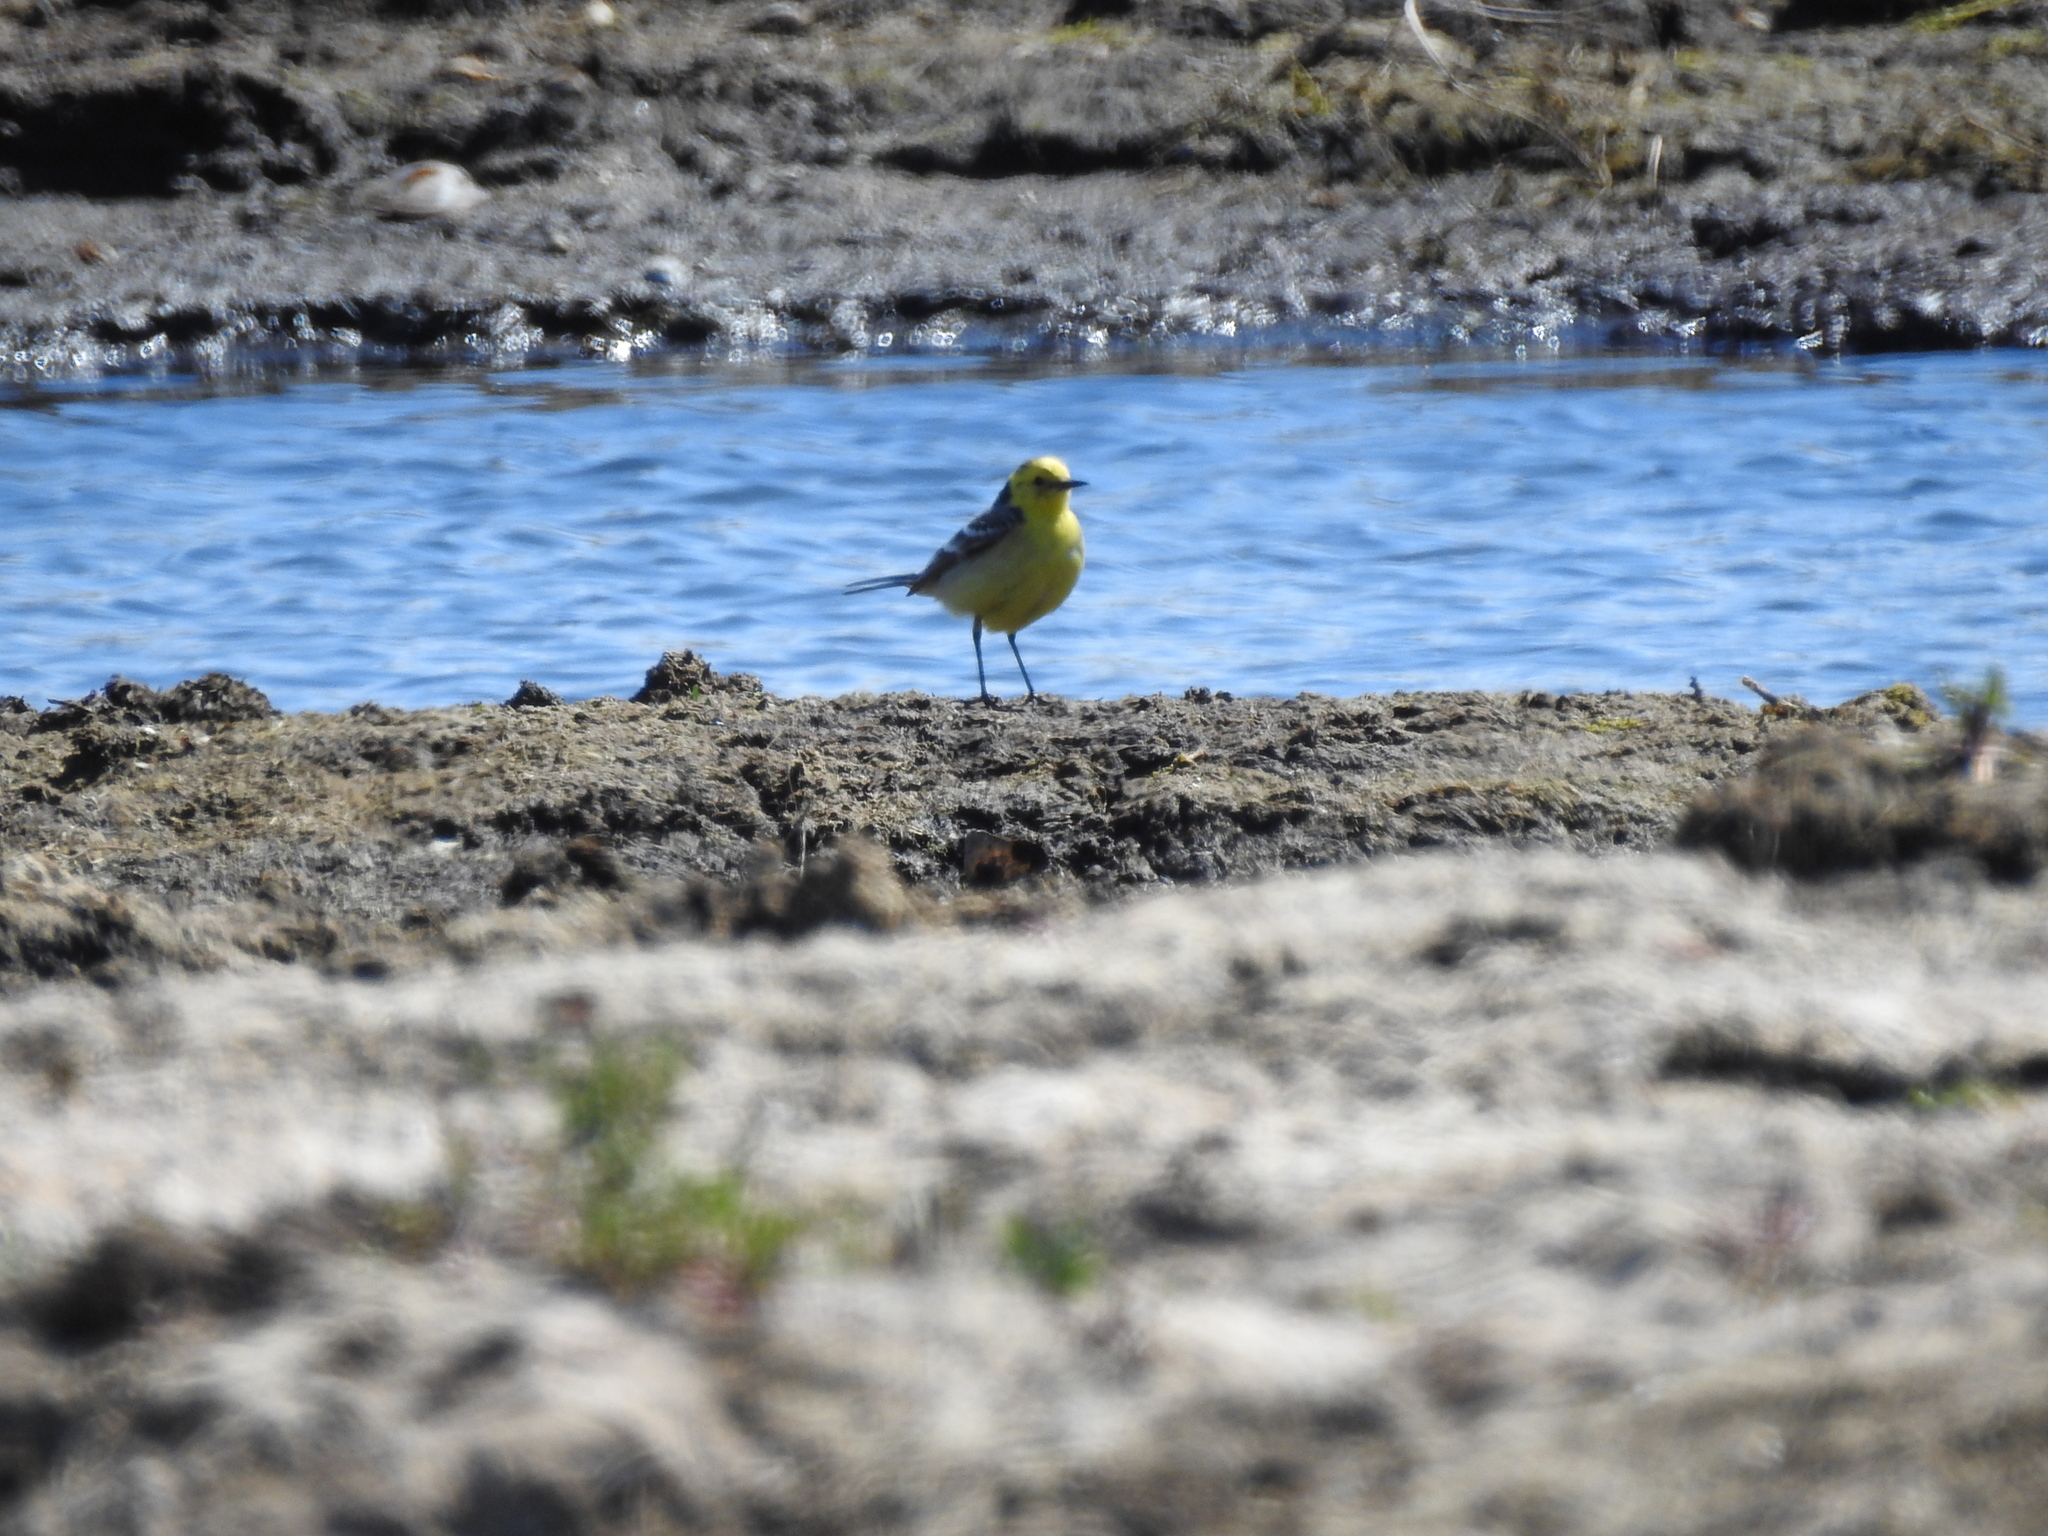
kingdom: Animalia
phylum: Chordata
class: Aves
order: Passeriformes
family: Motacillidae
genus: Motacilla
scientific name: Motacilla citreola
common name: Citrine wagtail
